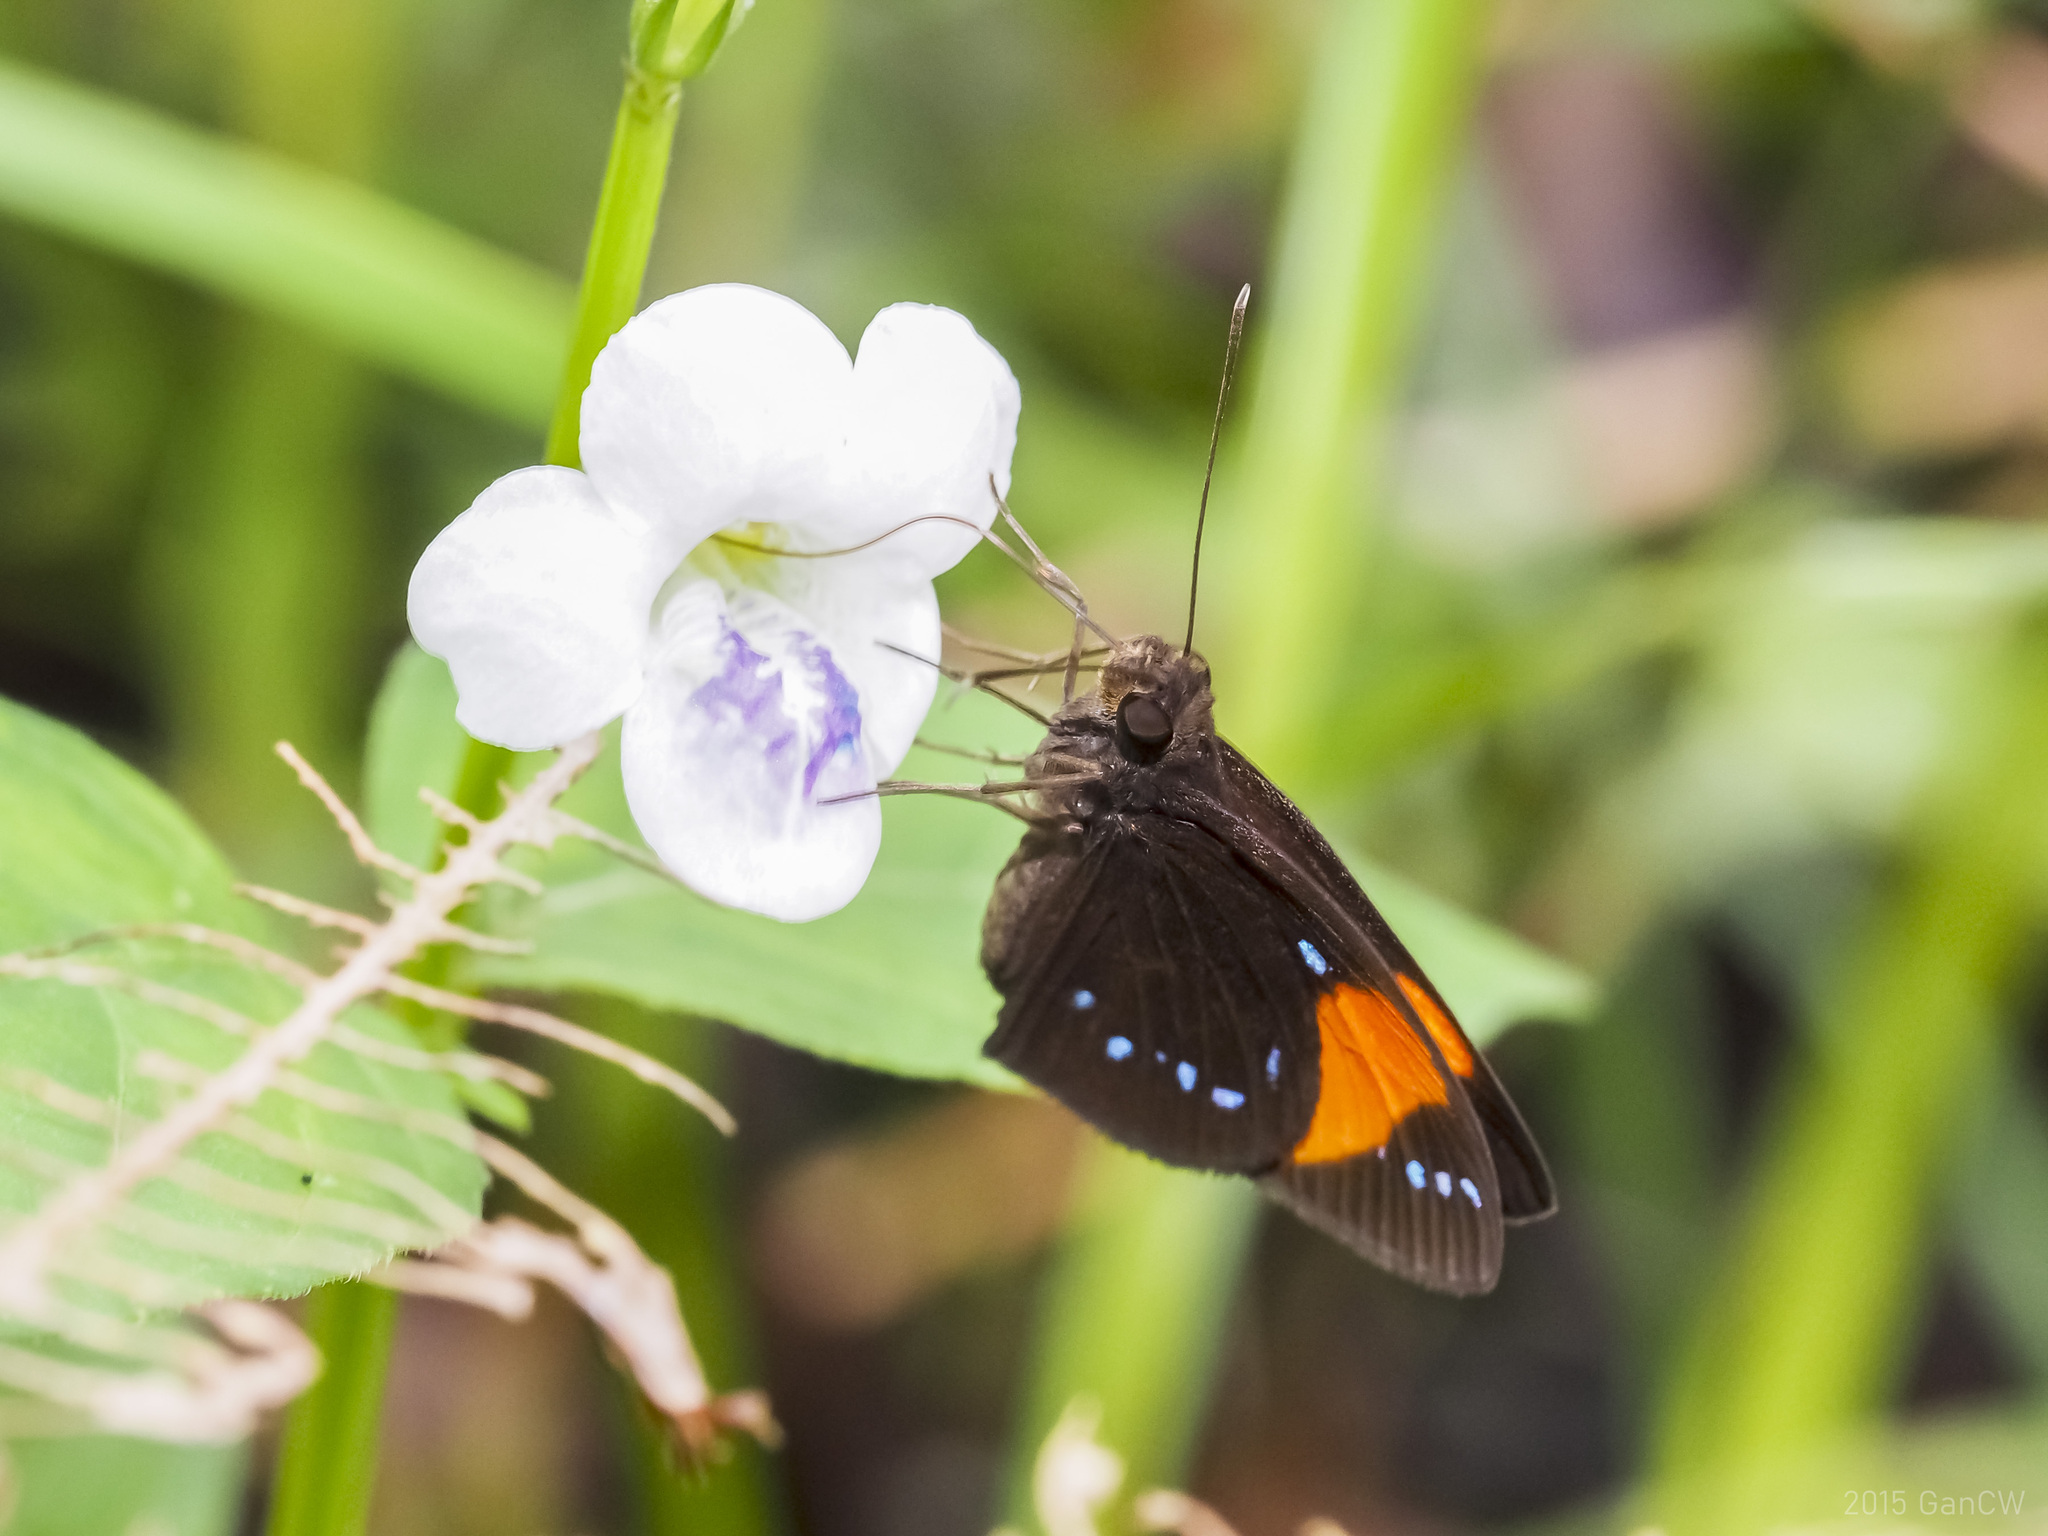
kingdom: Animalia
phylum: Arthropoda
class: Insecta
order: Lepidoptera
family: Hesperiidae
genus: Ancistroides
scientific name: Ancistroides gemmifer
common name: Gem demon
